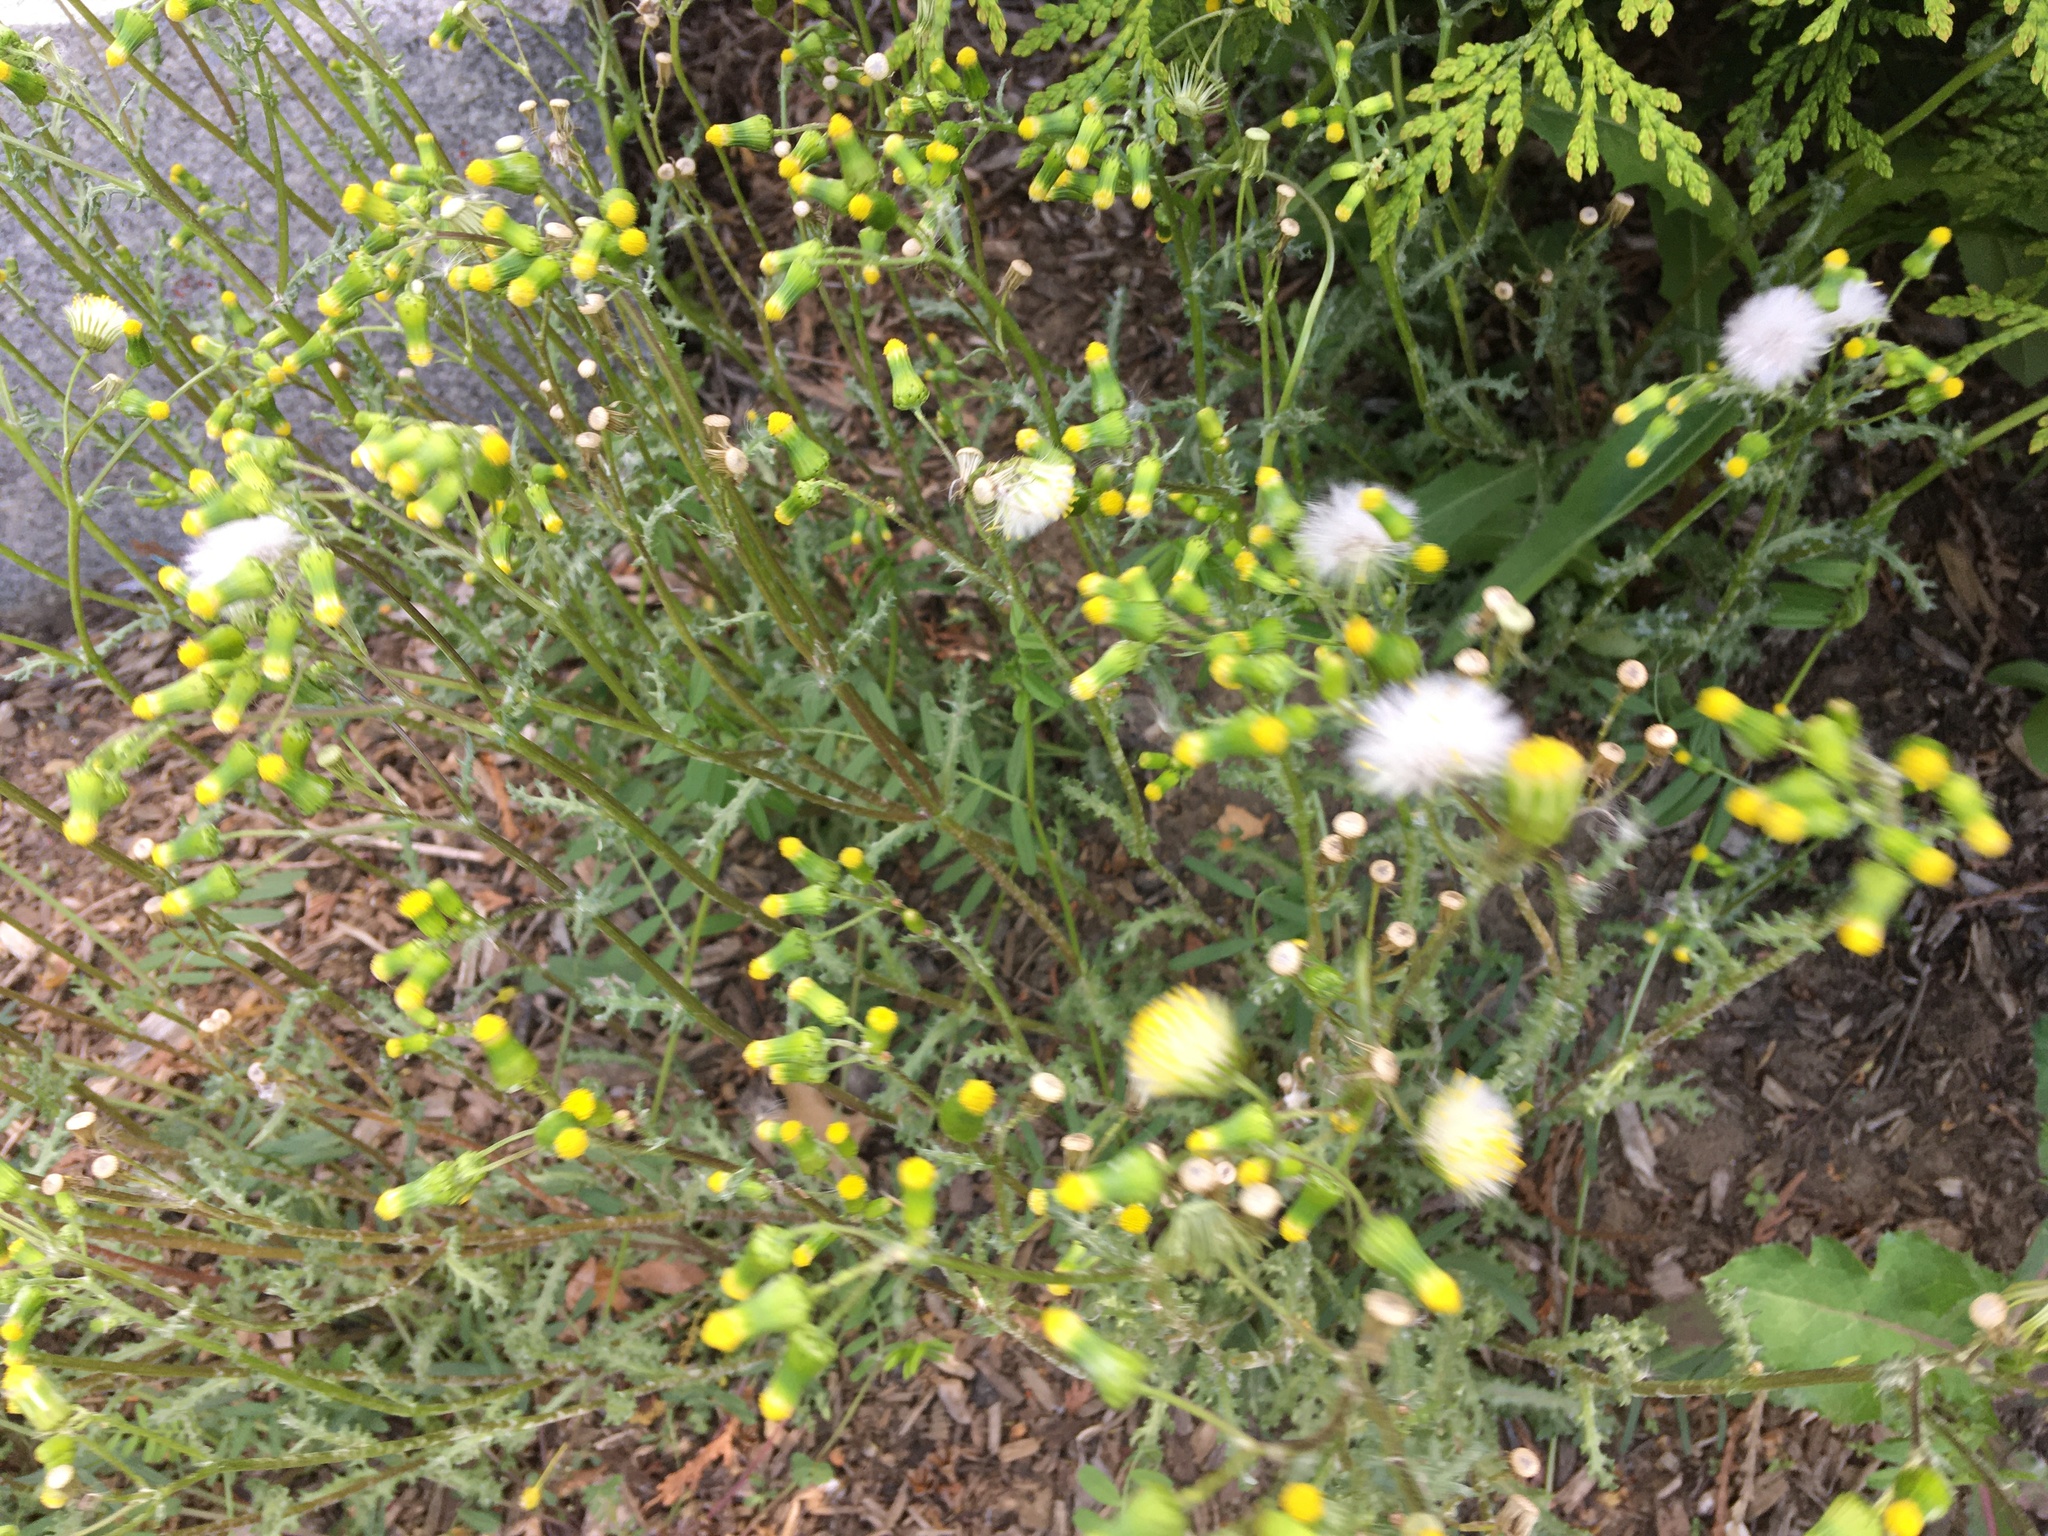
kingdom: Plantae
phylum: Tracheophyta
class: Magnoliopsida
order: Asterales
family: Asteraceae
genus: Senecio
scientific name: Senecio vulgaris
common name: Old-man-in-the-spring
